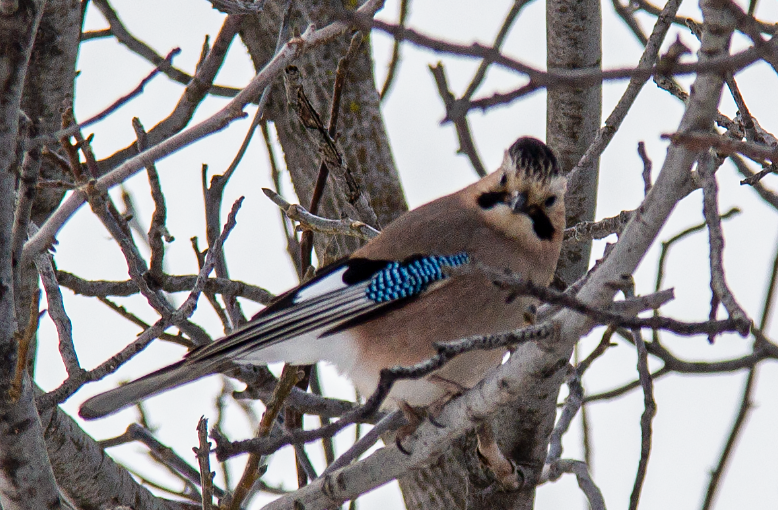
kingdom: Animalia
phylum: Chordata
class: Aves
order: Passeriformes
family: Corvidae
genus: Garrulus
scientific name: Garrulus glandarius
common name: Eurasian jay
